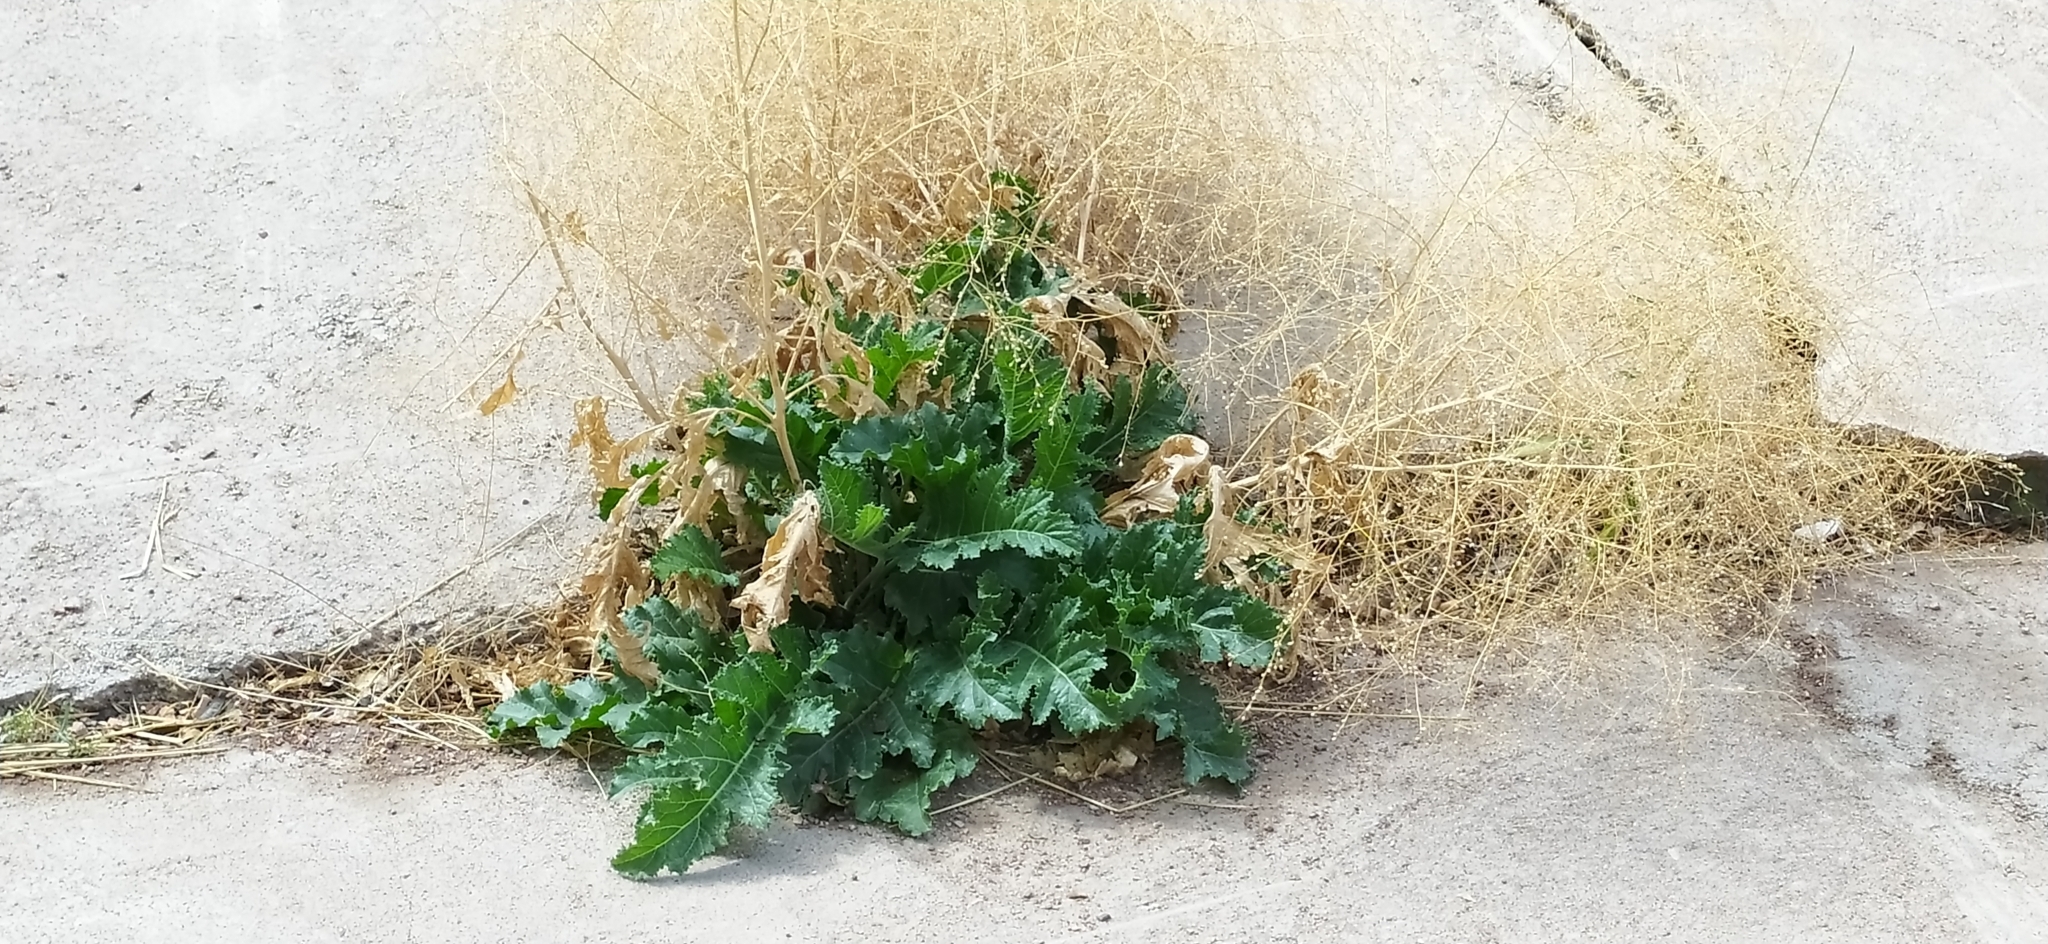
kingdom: Plantae
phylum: Tracheophyta
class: Magnoliopsida
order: Brassicales
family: Brassicaceae
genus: Crambe
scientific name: Crambe orientalis
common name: Oriental sea-kale
